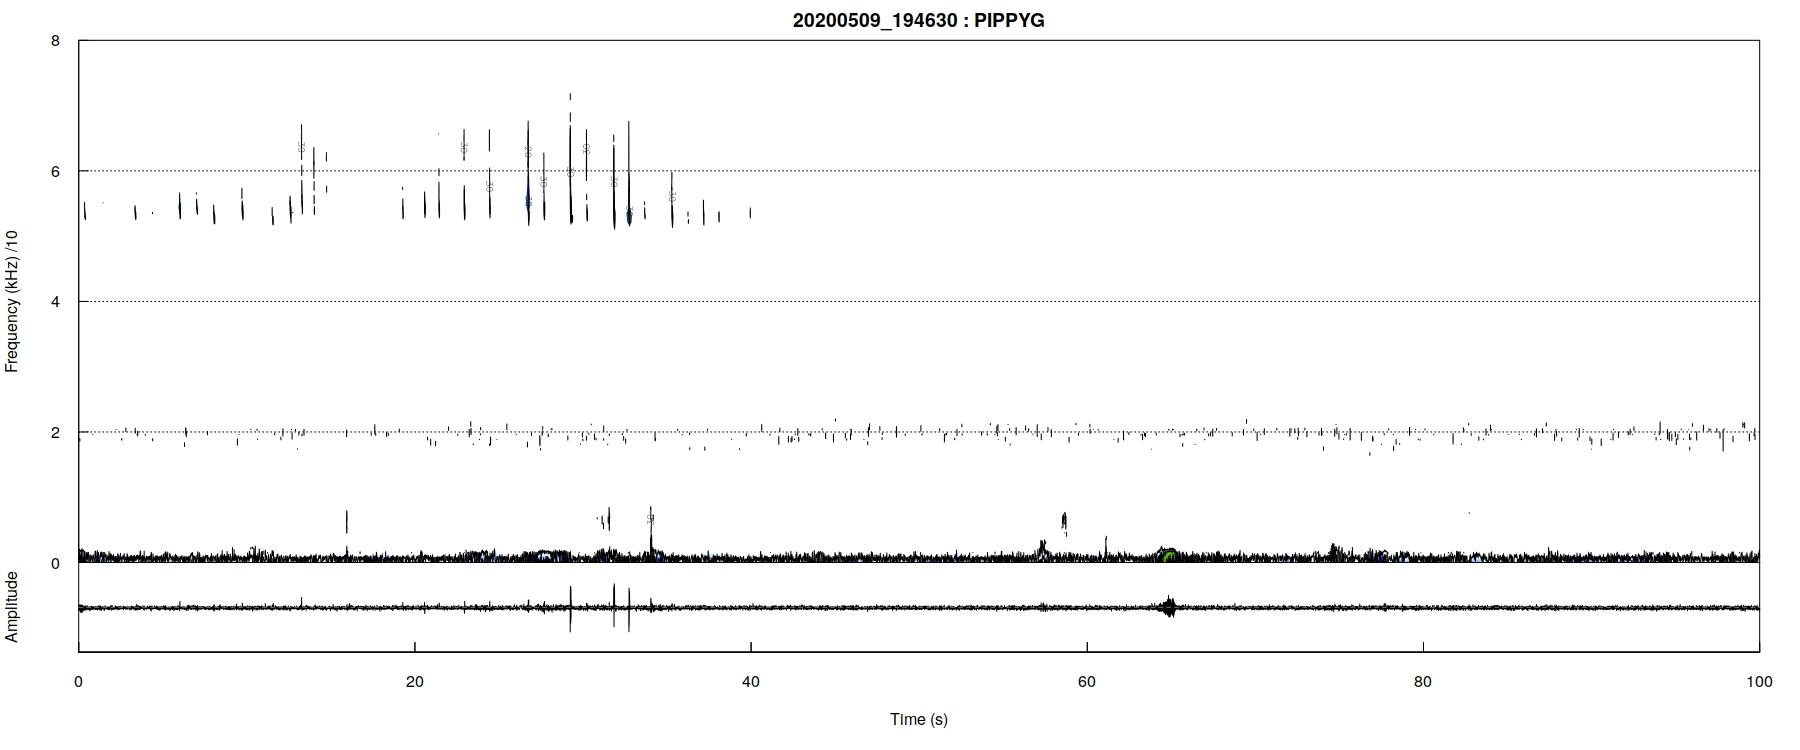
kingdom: Animalia
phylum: Chordata
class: Mammalia
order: Chiroptera
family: Vespertilionidae
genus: Pipistrellus
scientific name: Pipistrellus pygmaeus
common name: Soprano pipistrelle
